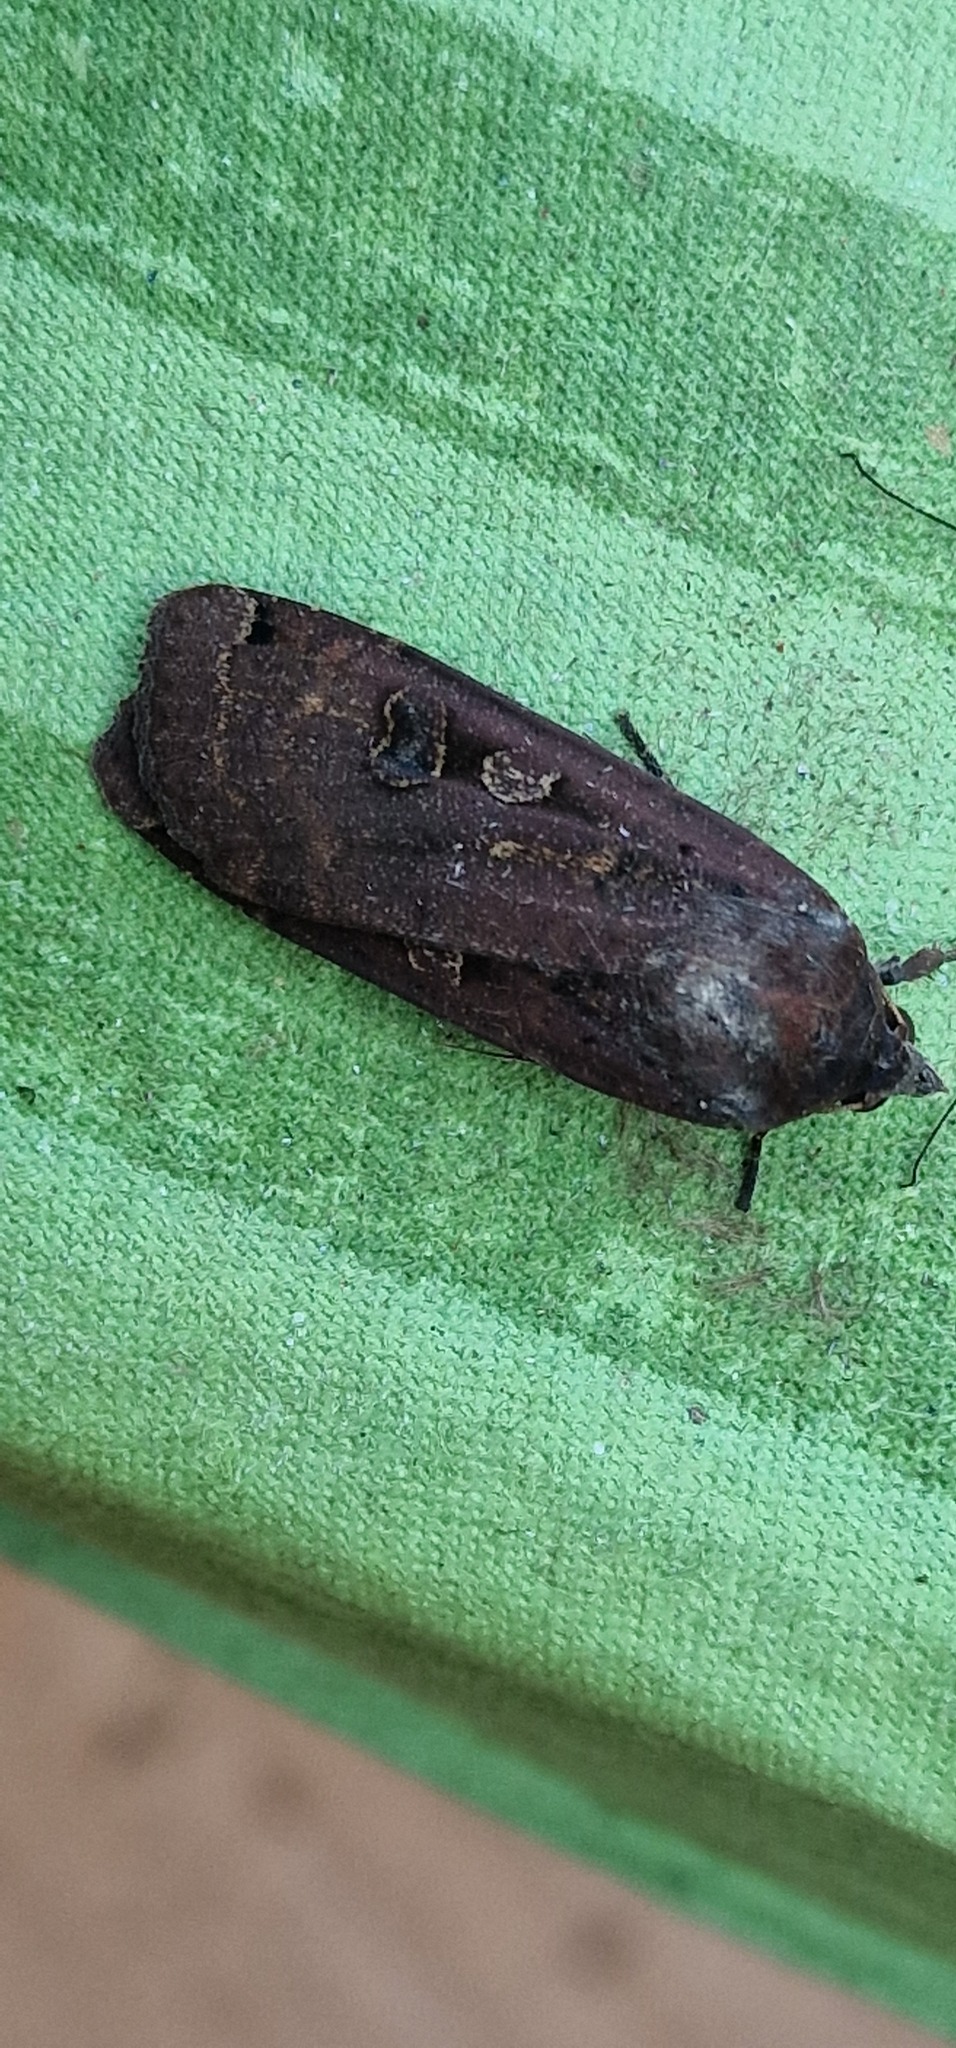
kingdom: Animalia
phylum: Arthropoda
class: Insecta
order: Lepidoptera
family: Noctuidae
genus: Noctua
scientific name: Noctua pronuba
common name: Large yellow underwing
